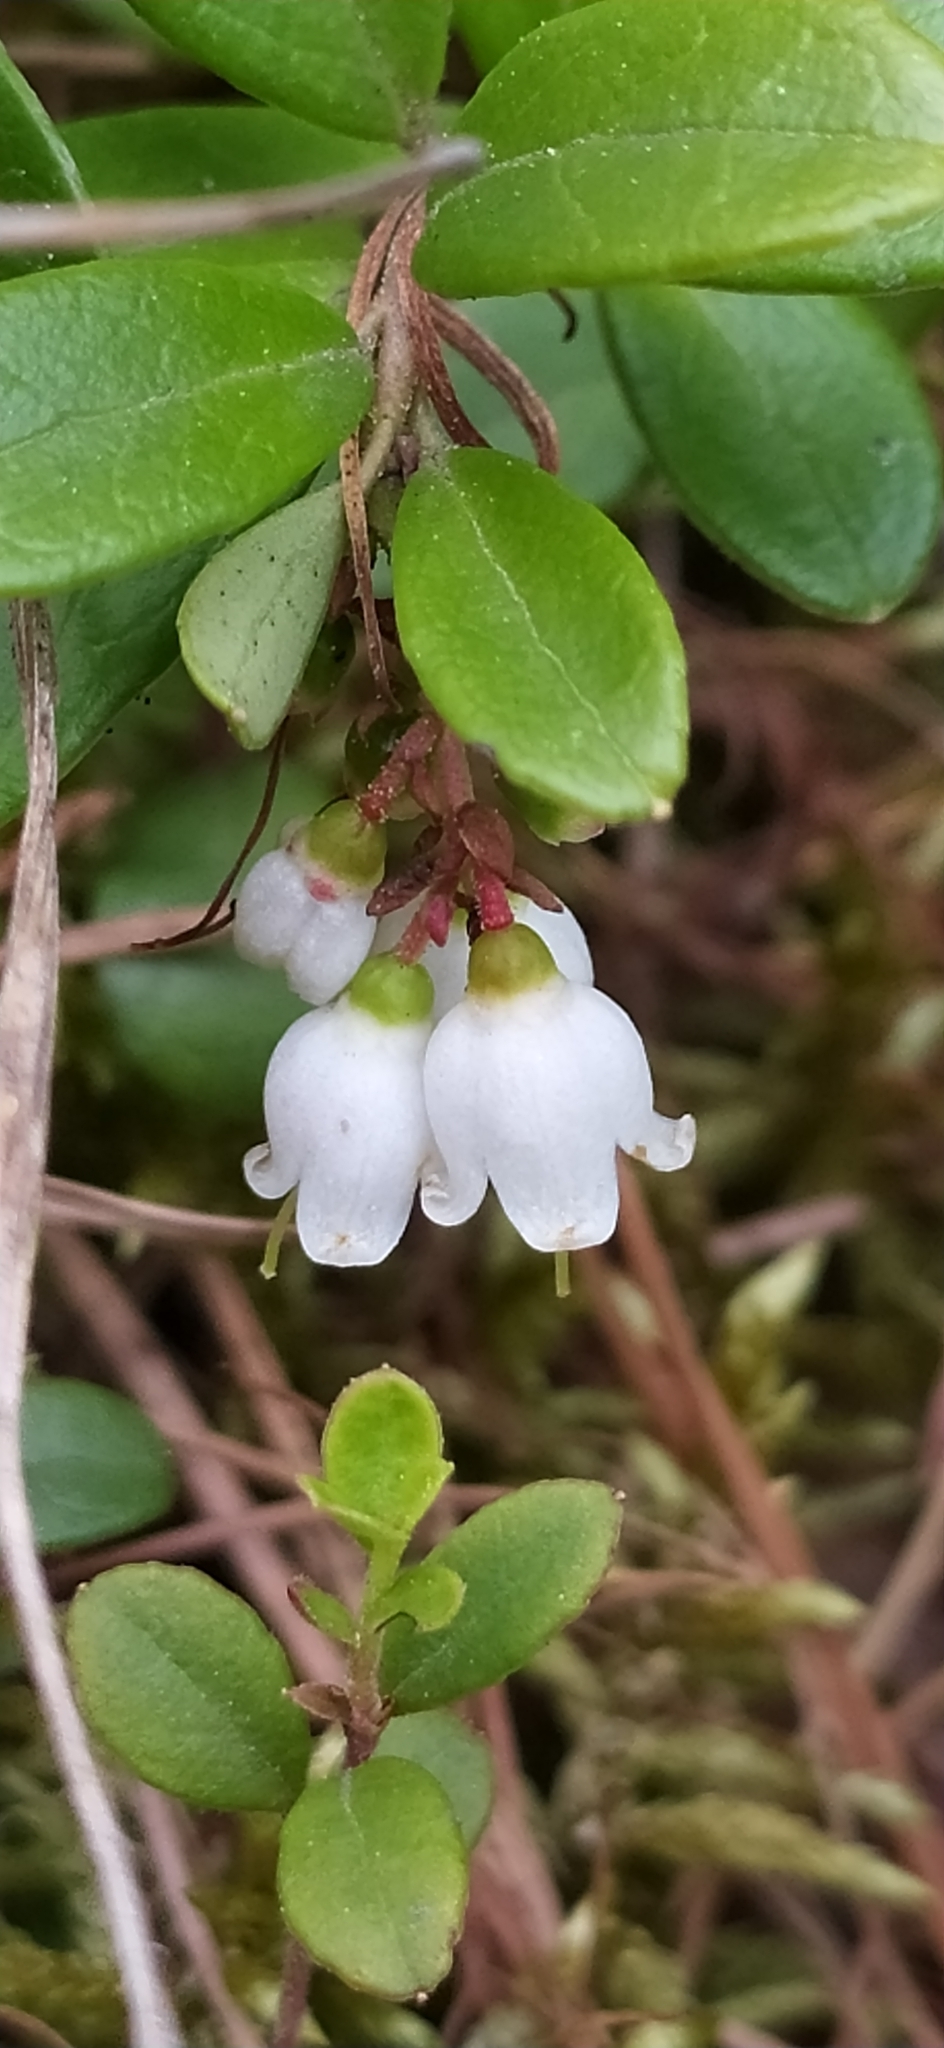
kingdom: Plantae
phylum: Tracheophyta
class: Magnoliopsida
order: Ericales
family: Ericaceae
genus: Vaccinium
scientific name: Vaccinium vitis-idaea
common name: Cowberry
